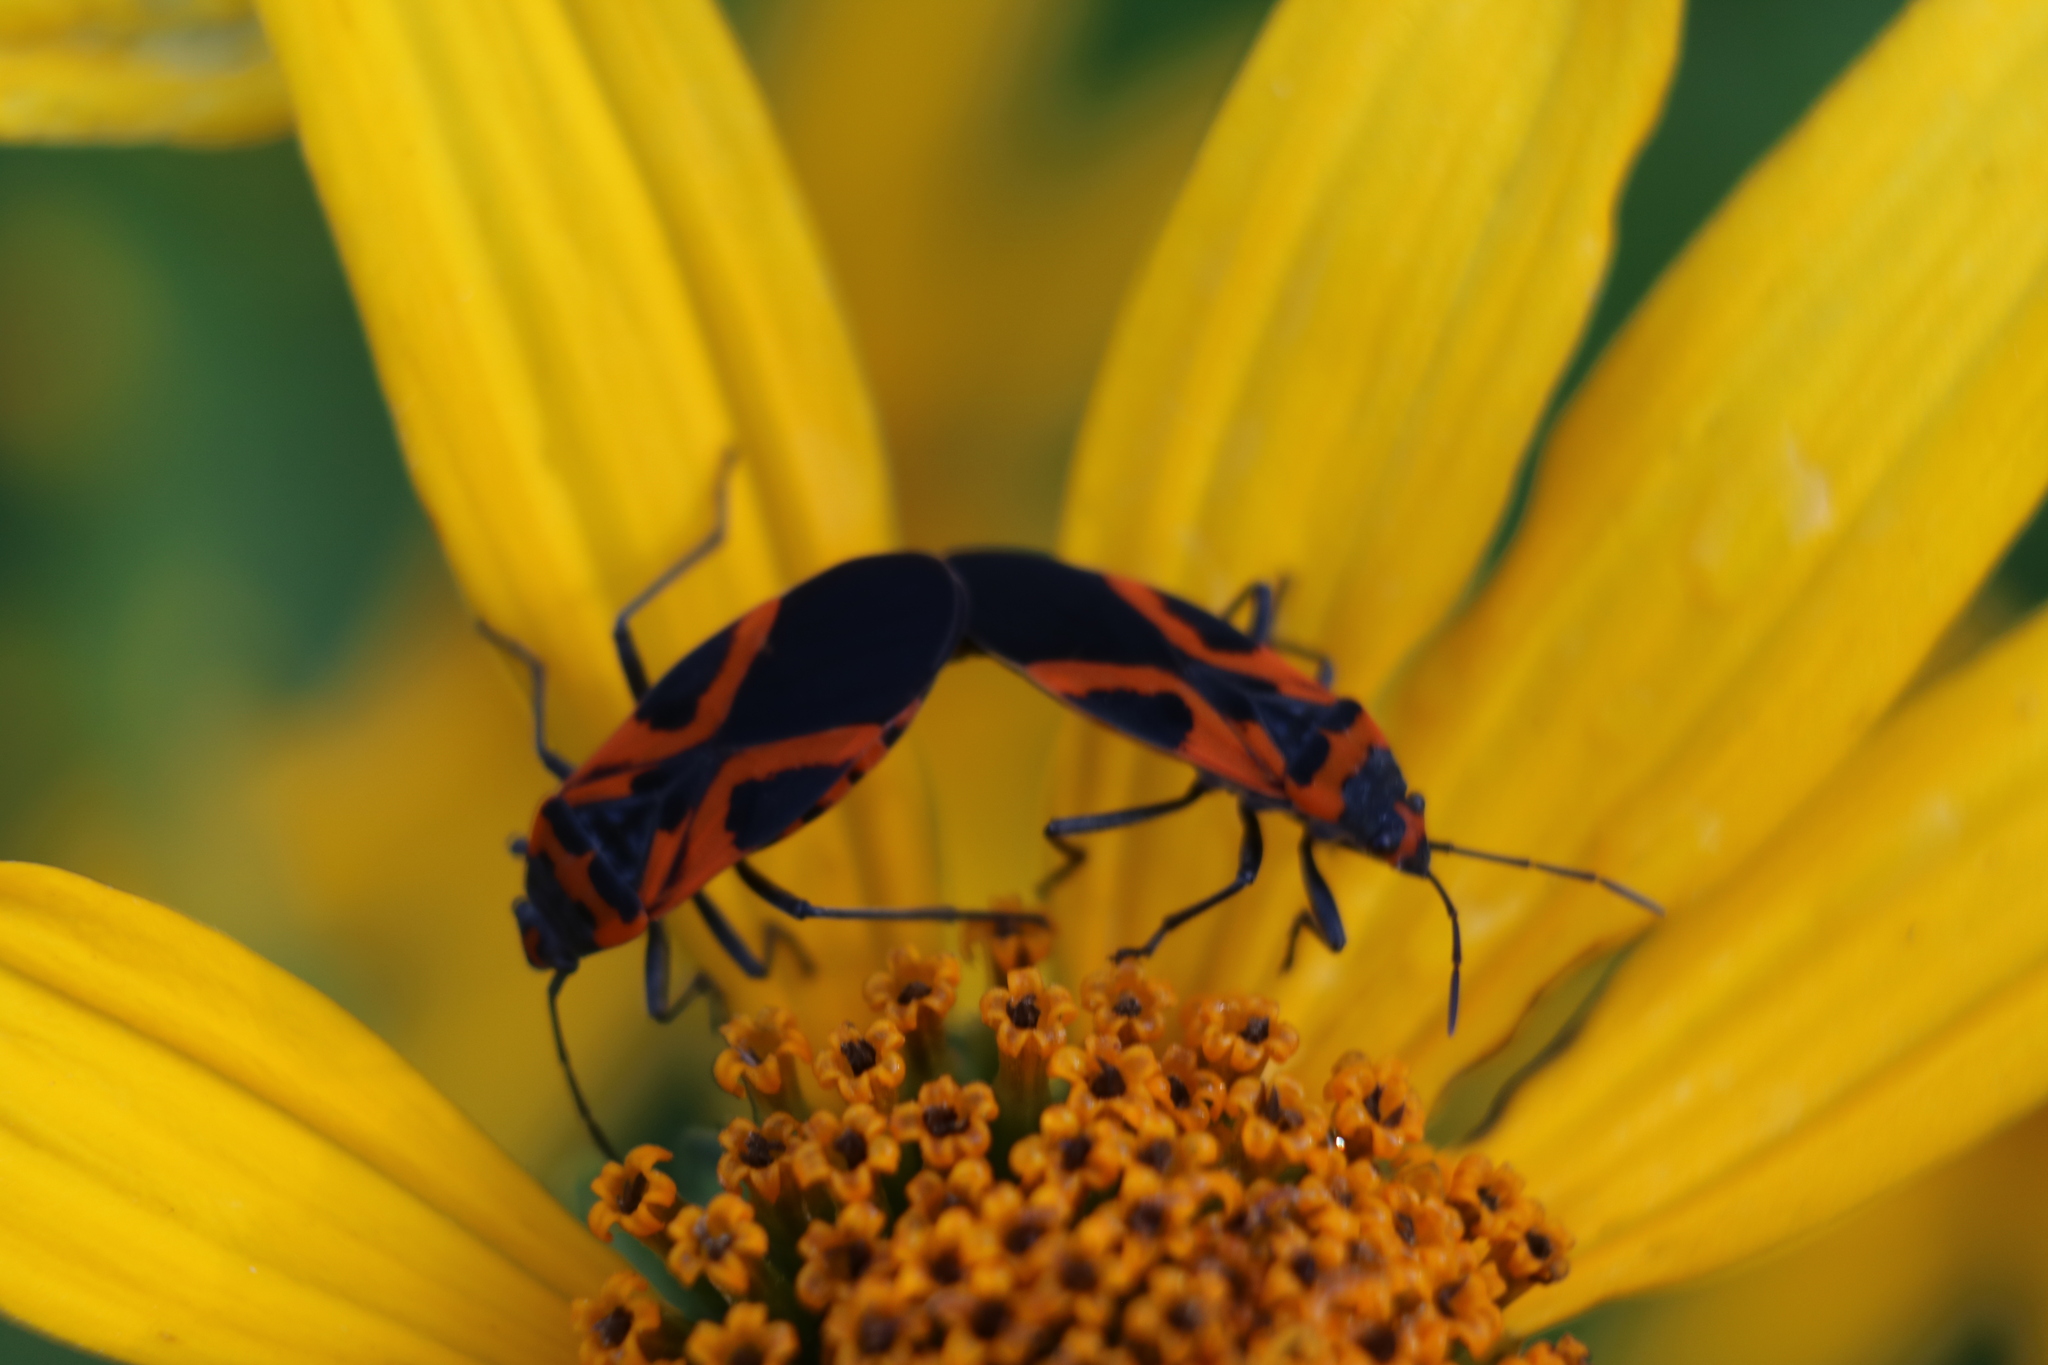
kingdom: Animalia
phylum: Arthropoda
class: Insecta
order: Hemiptera
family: Lygaeidae
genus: Lygaeus
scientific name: Lygaeus turcicus
